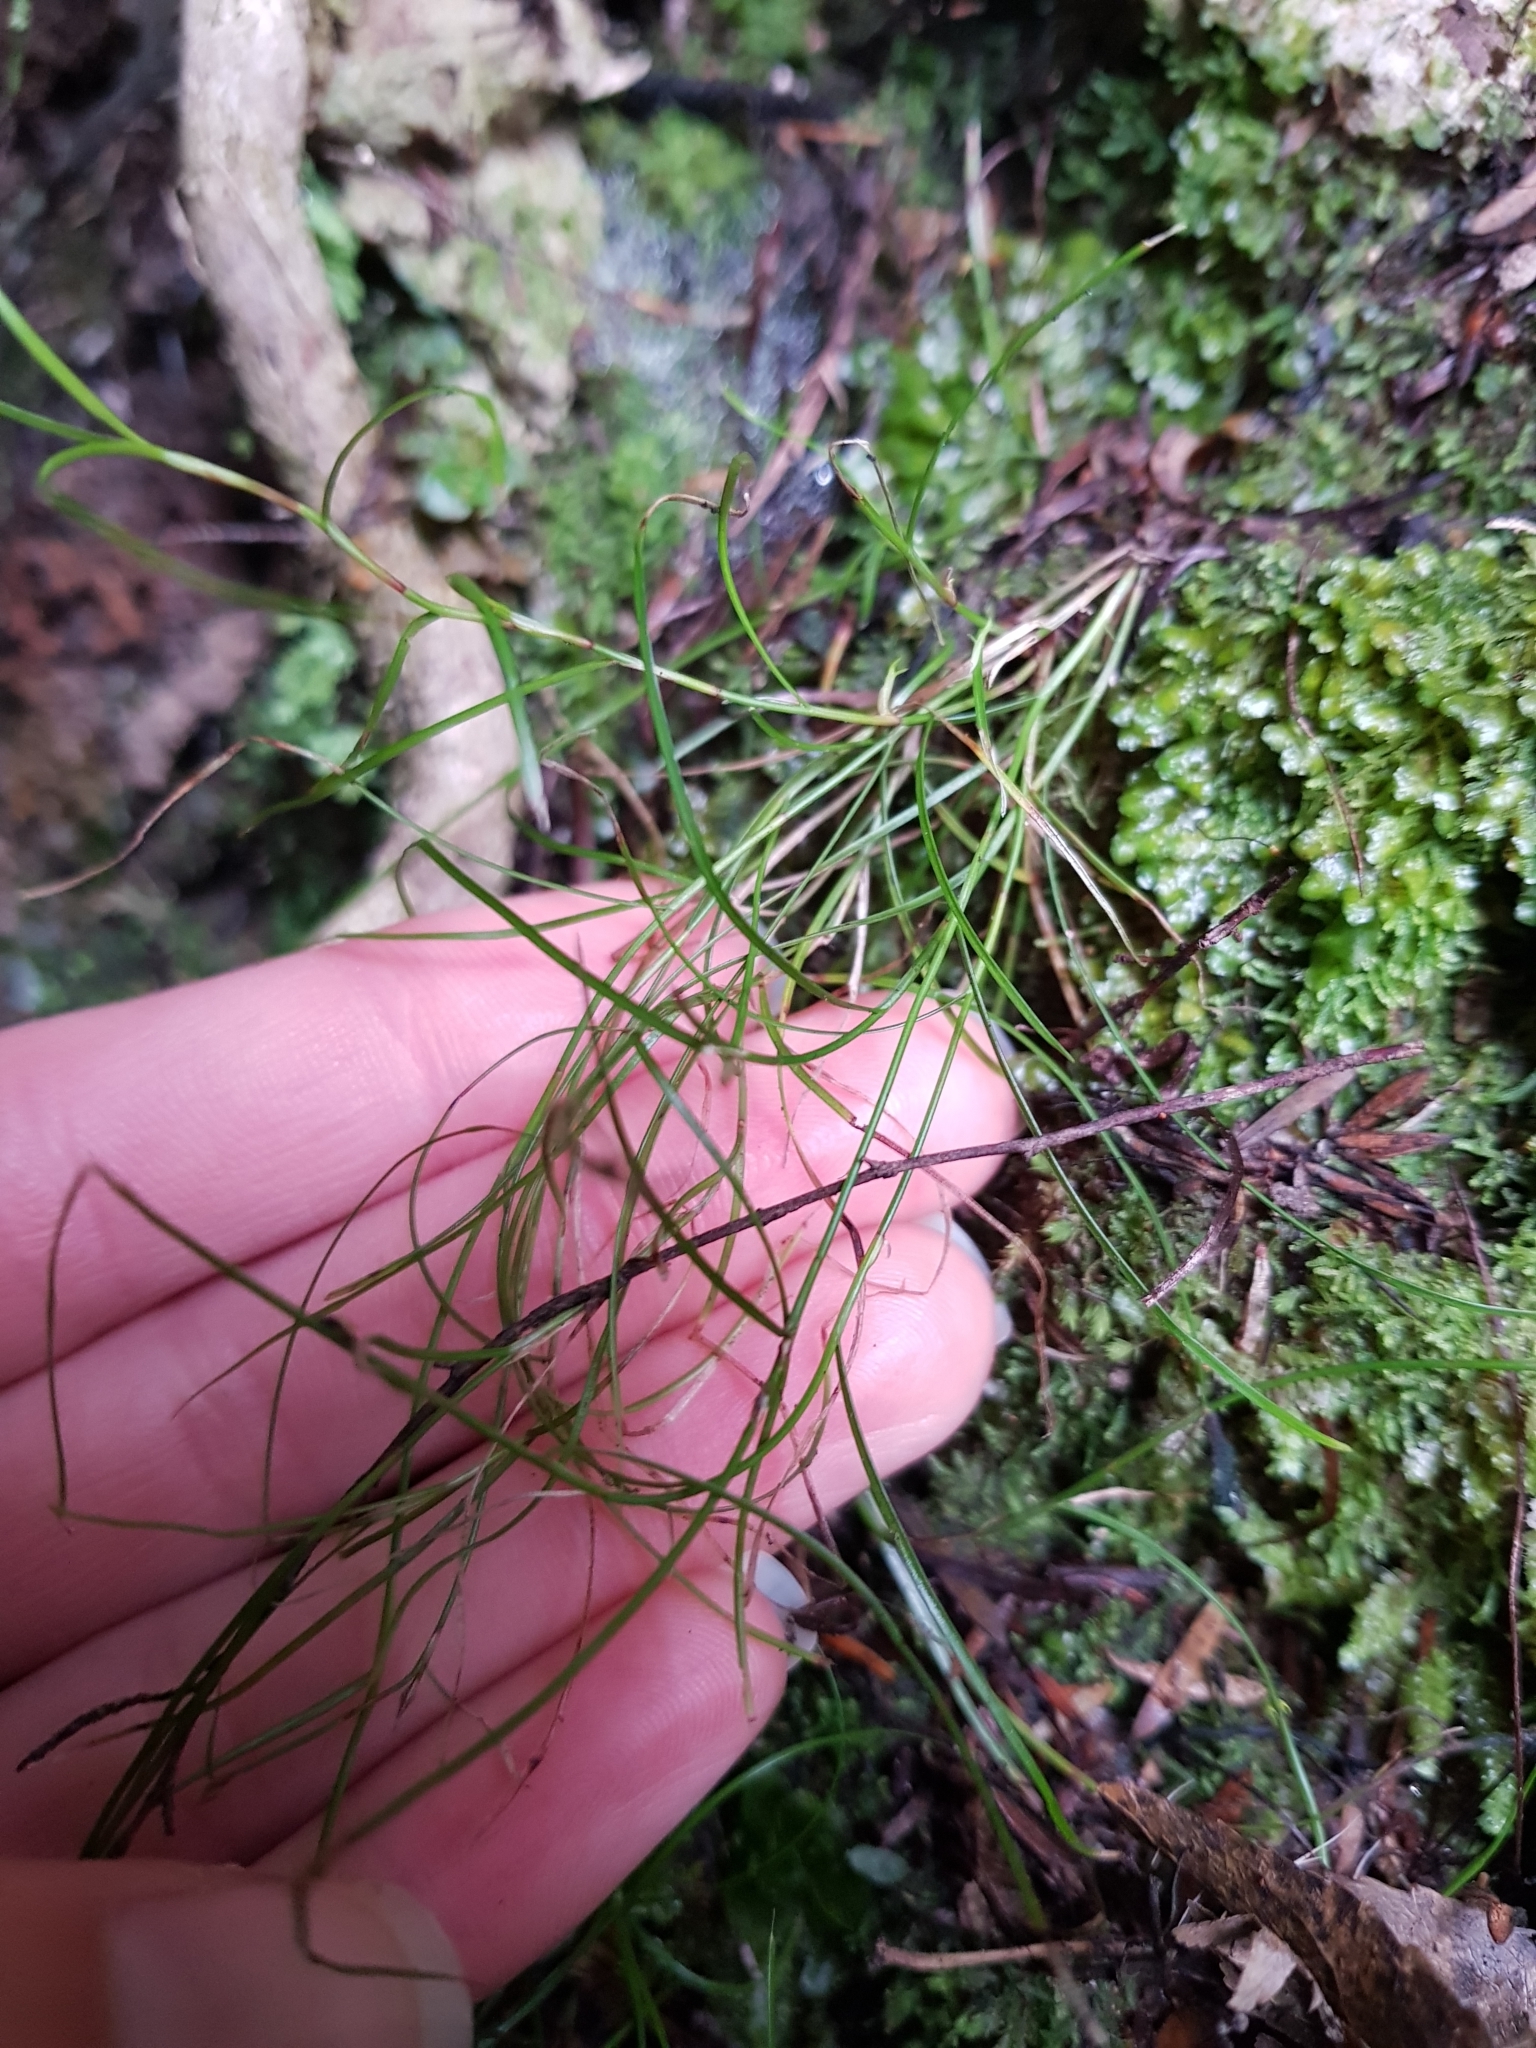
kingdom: Plantae
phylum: Tracheophyta
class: Liliopsida
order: Poales
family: Cyperaceae
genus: Schoenus
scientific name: Schoenus maschalinus
